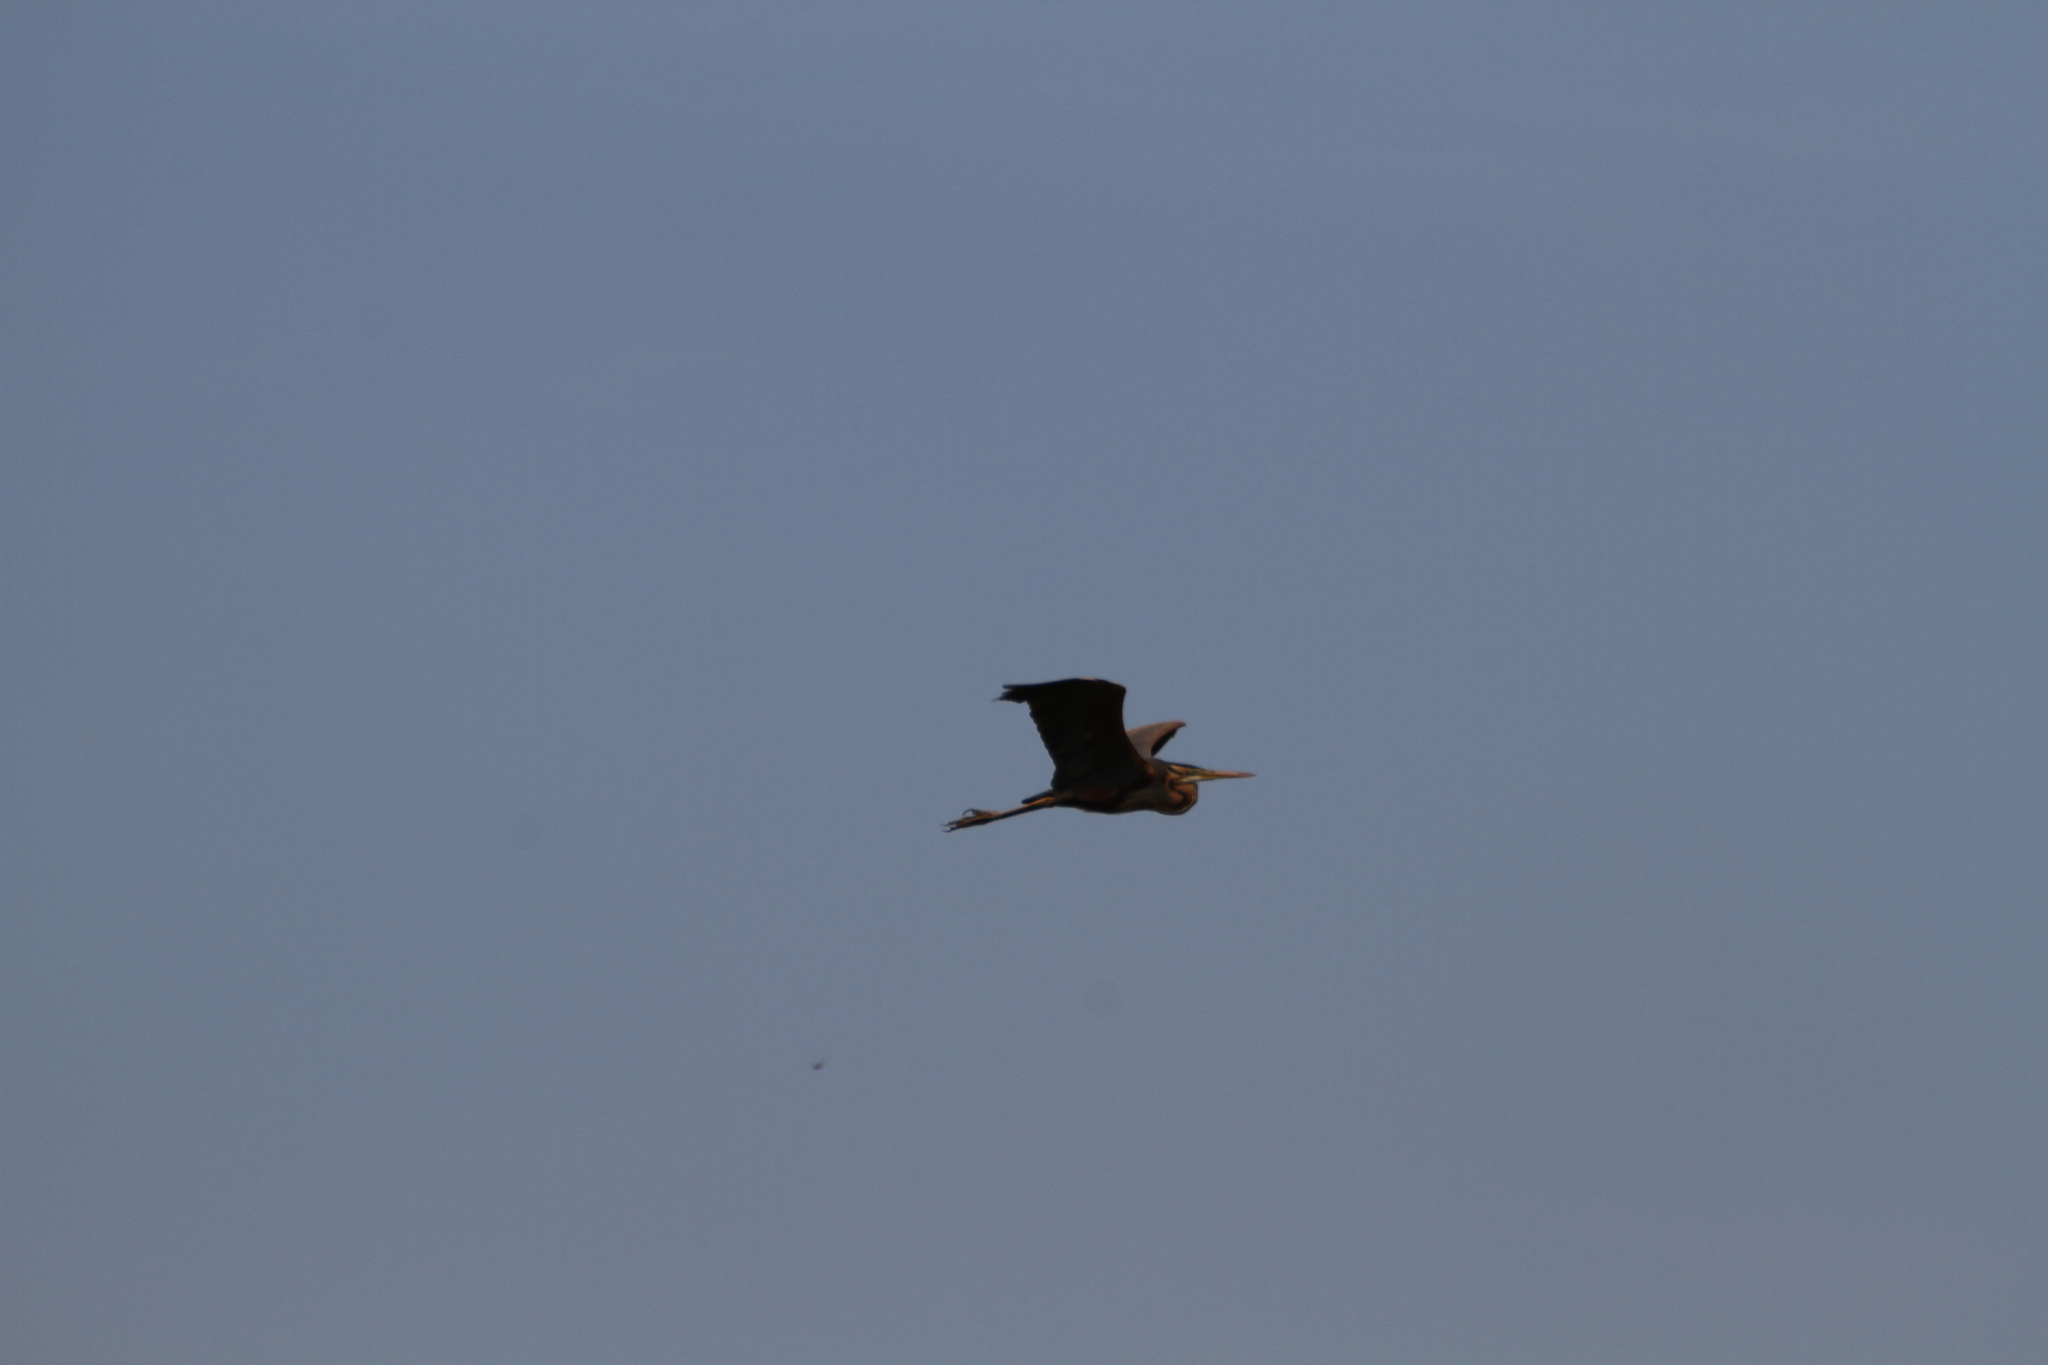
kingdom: Animalia
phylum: Chordata
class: Aves
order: Pelecaniformes
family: Ardeidae
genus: Ardea
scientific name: Ardea purpurea
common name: Purple heron
